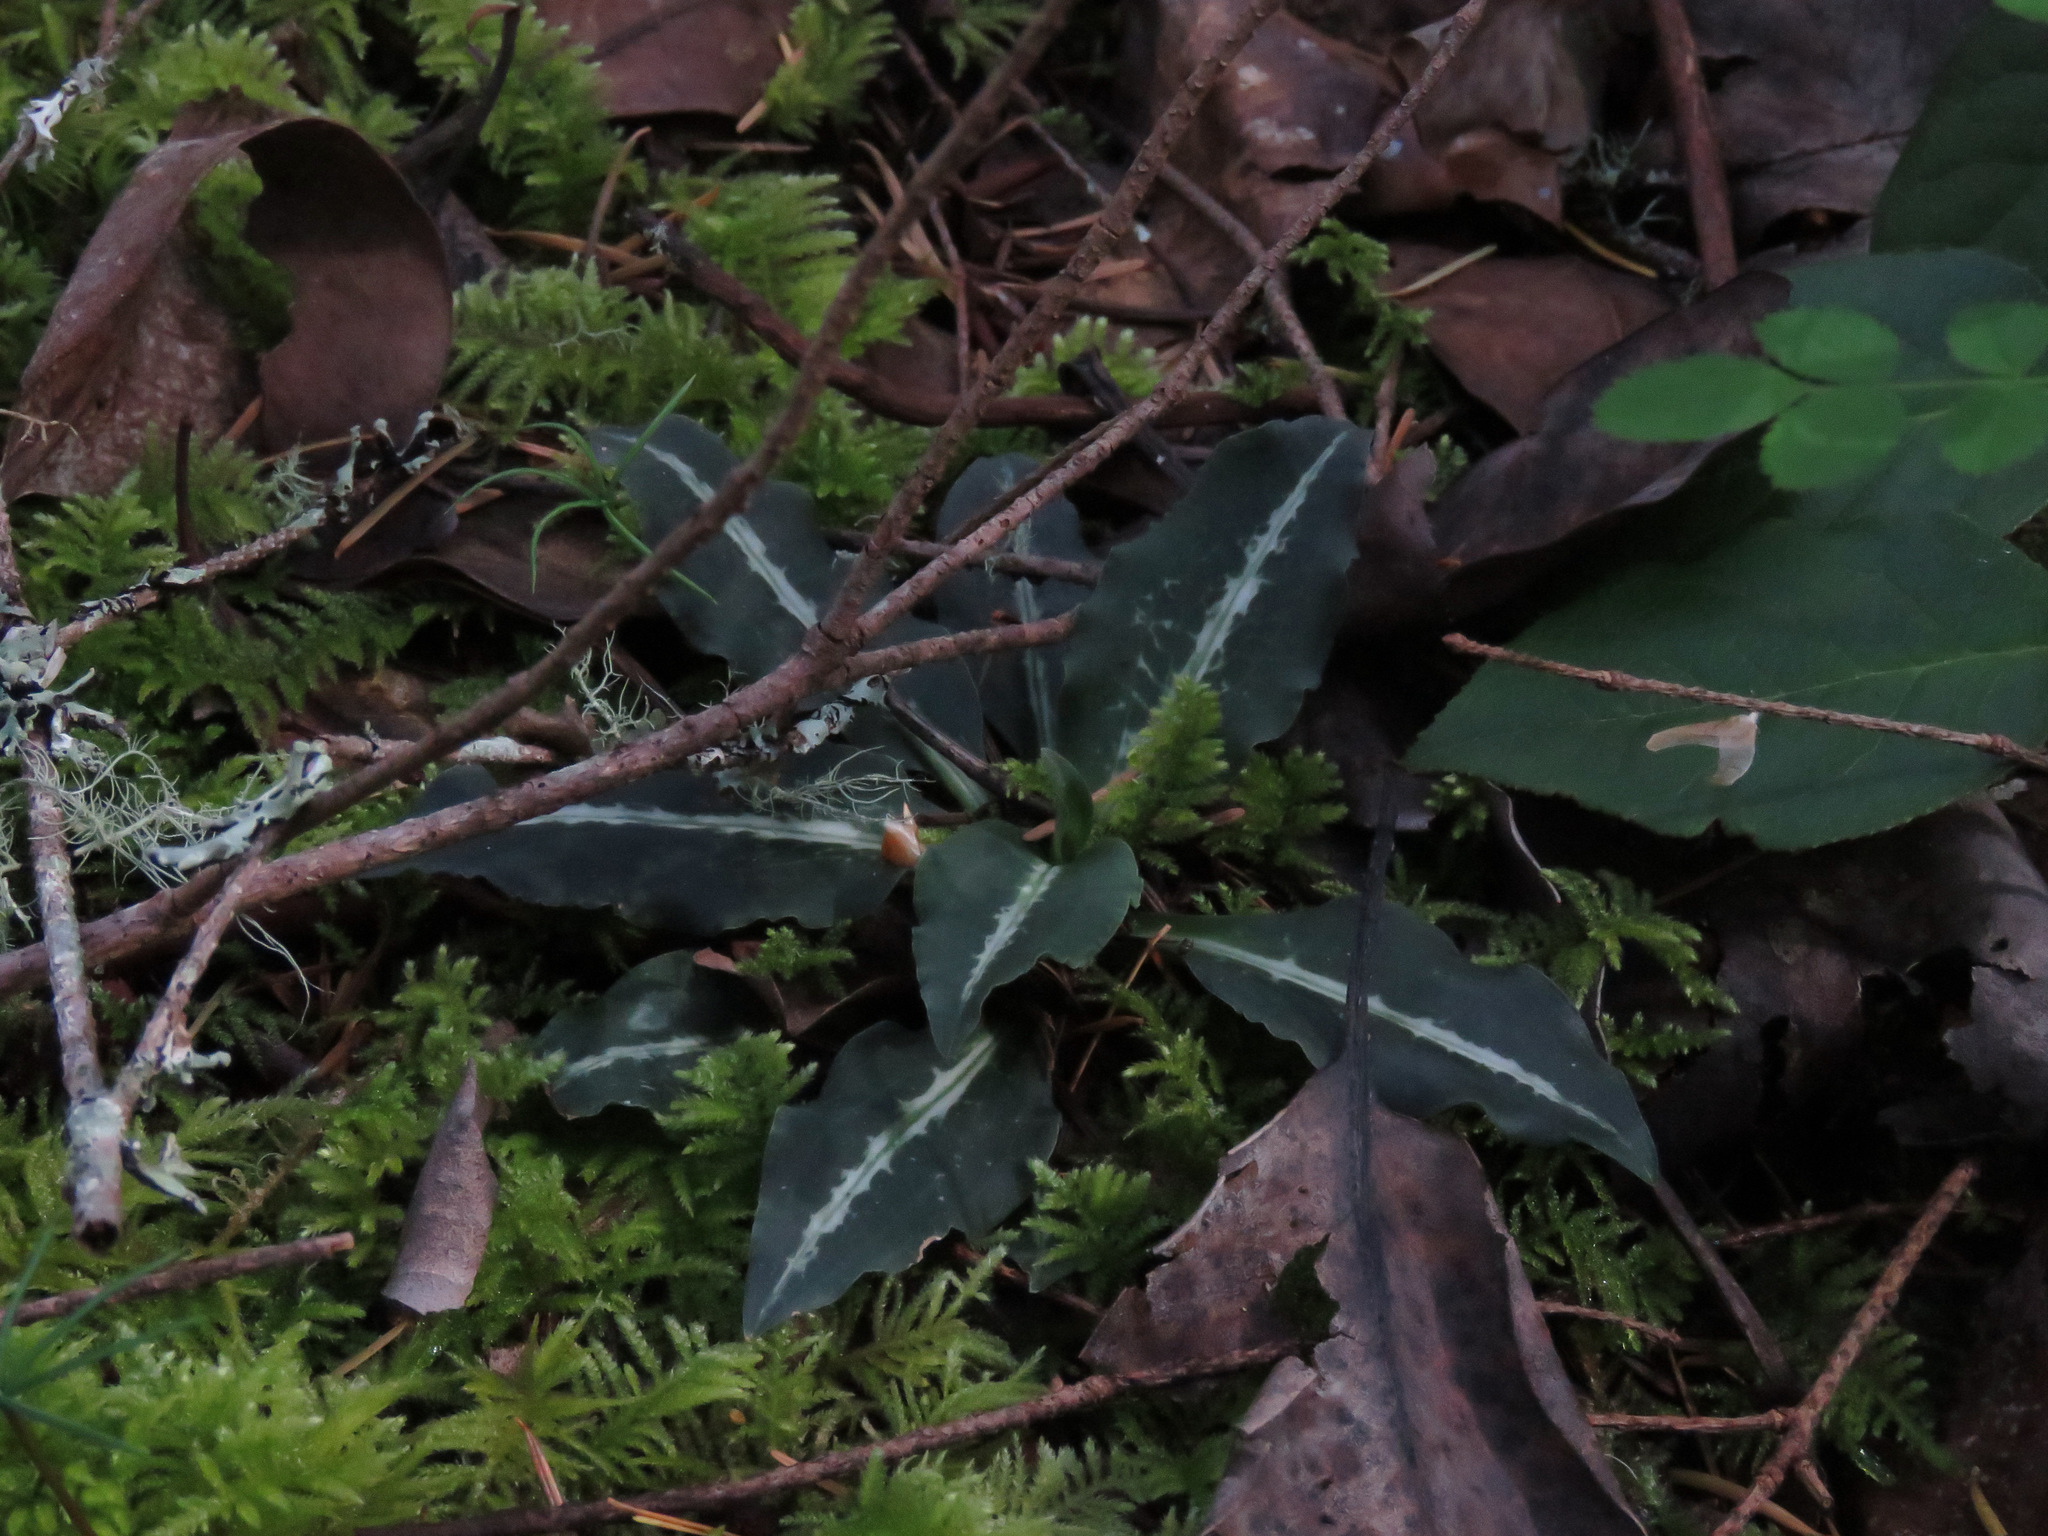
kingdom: Plantae
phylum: Tracheophyta
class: Liliopsida
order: Asparagales
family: Orchidaceae
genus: Goodyera
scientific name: Goodyera oblongifolia
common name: Giant rattlesnake-plantain
